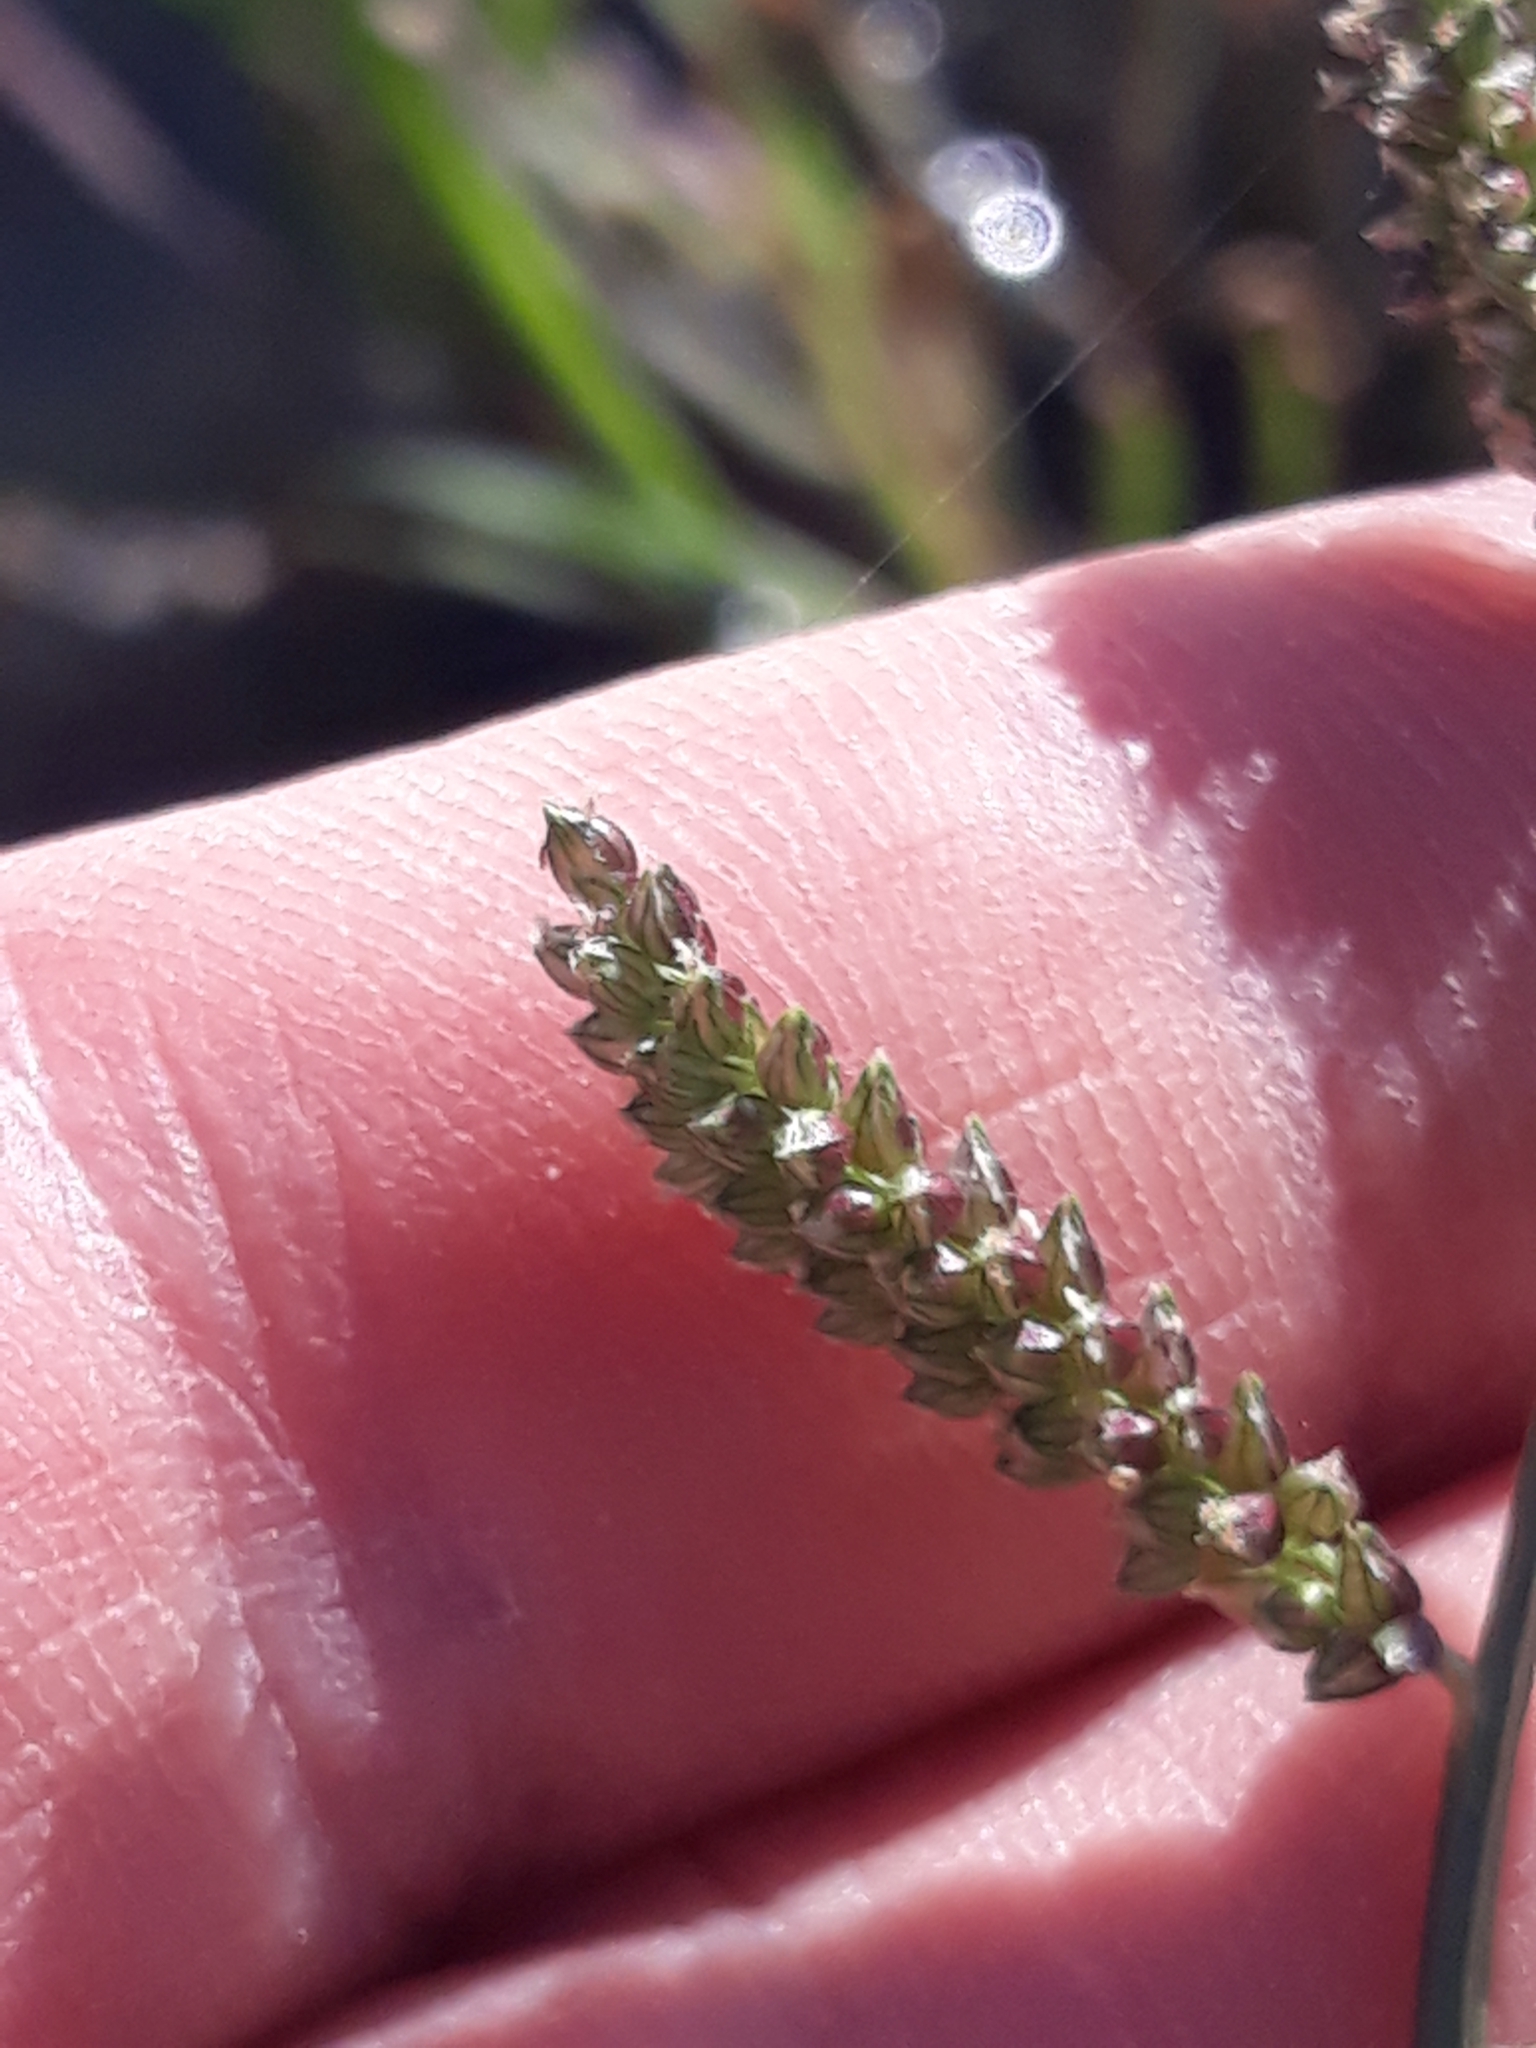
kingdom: Plantae
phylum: Tracheophyta
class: Liliopsida
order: Poales
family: Poaceae
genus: Echinochloa
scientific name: Echinochloa colonum
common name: Jungle rice
